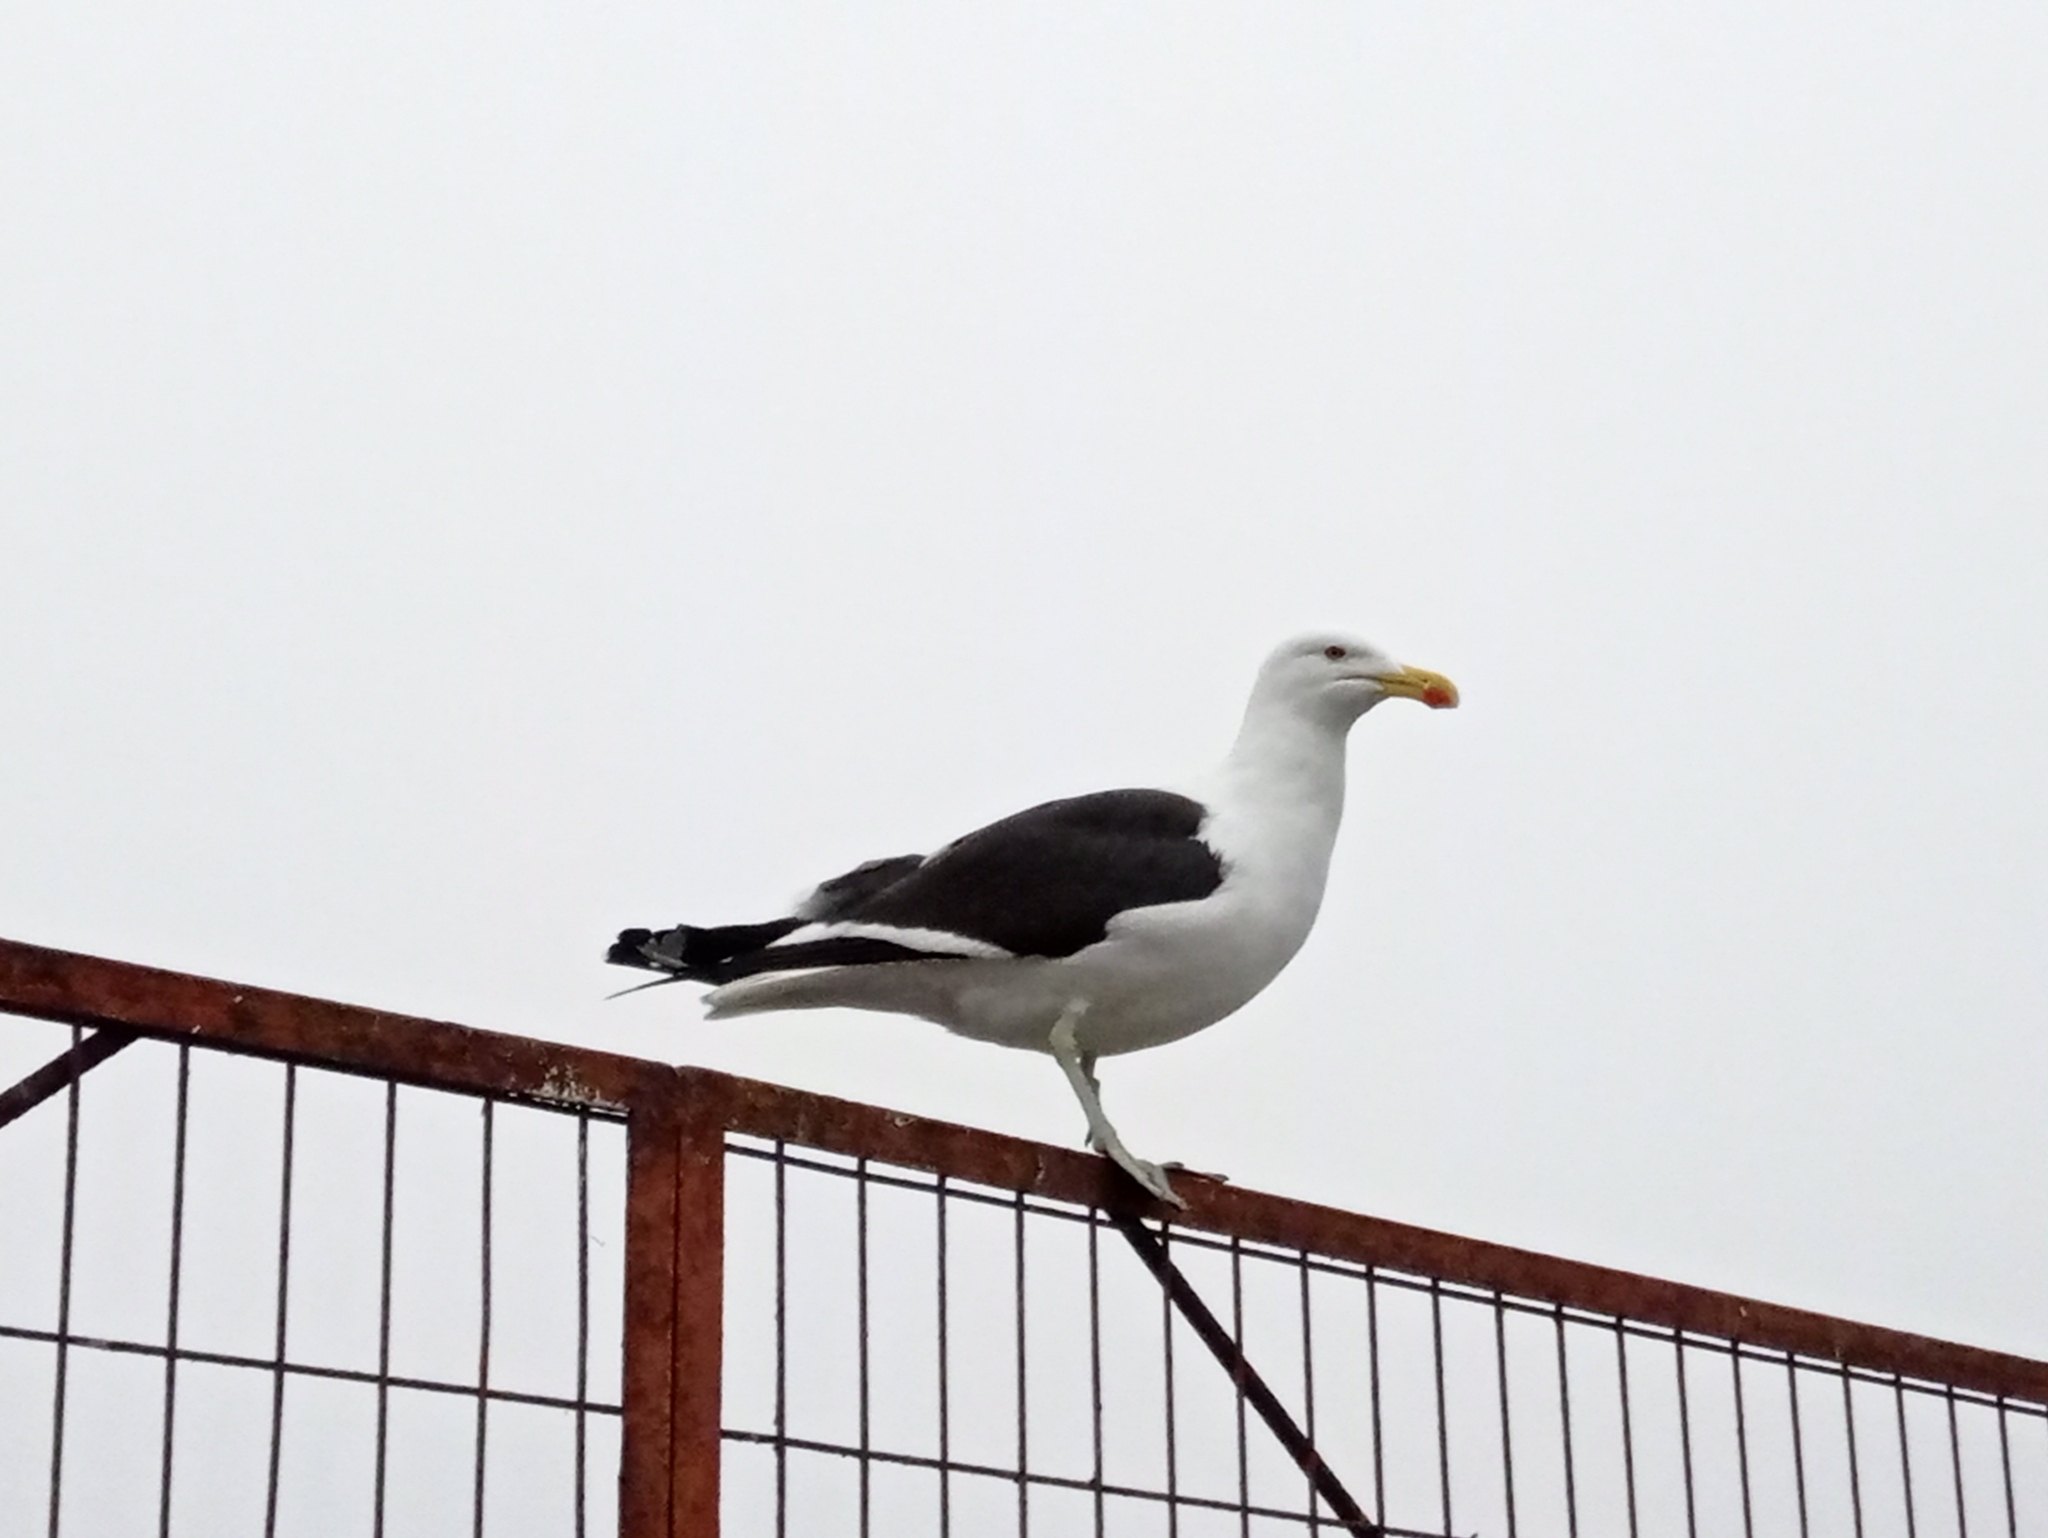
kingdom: Animalia
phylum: Chordata
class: Aves
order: Charadriiformes
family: Laridae
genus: Larus
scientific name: Larus dominicanus
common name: Kelp gull
